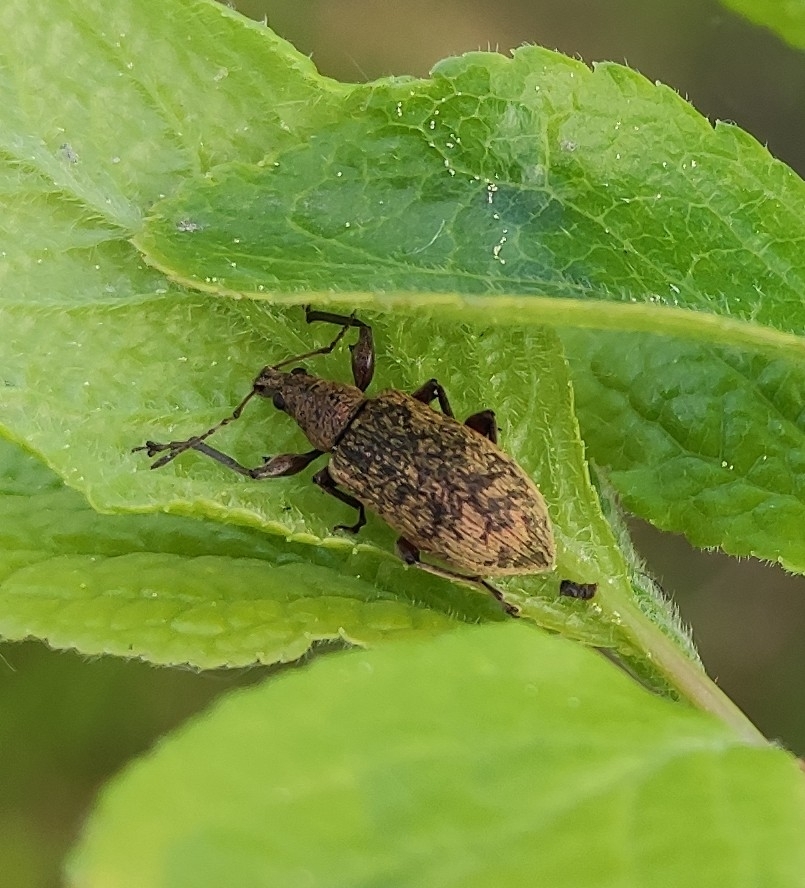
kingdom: Animalia
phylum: Arthropoda
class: Insecta
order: Coleoptera
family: Curculionidae
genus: Phyllobius
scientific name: Phyllobius glaucus
